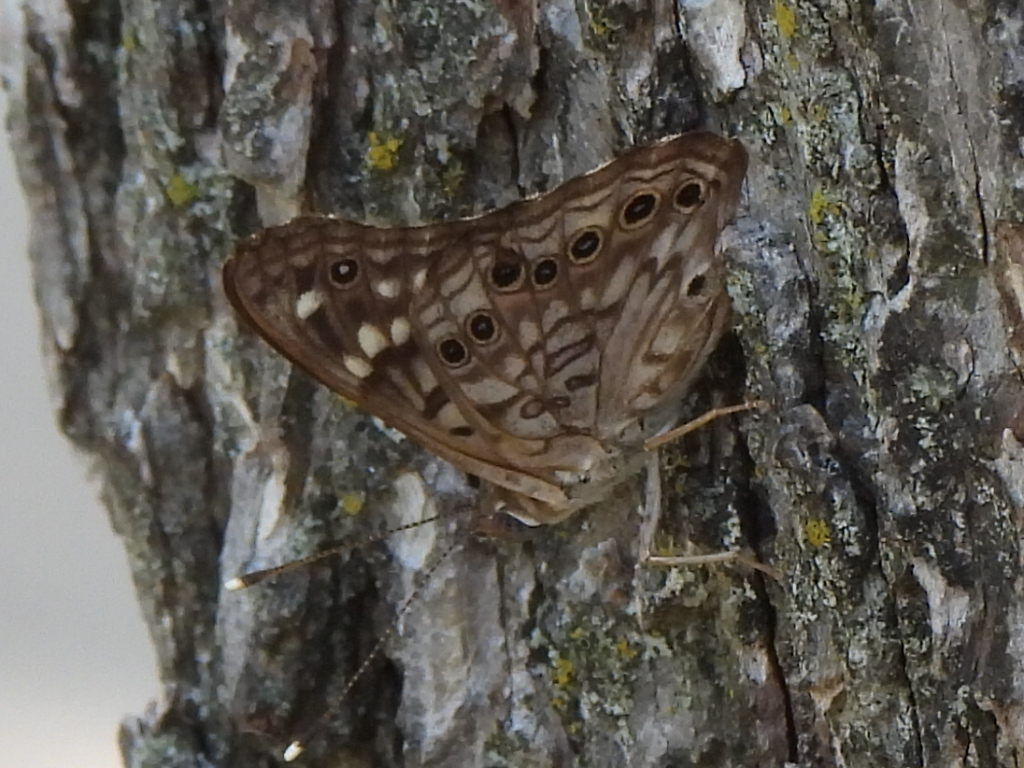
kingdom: Animalia
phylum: Arthropoda
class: Insecta
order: Lepidoptera
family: Nymphalidae
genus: Asterocampa
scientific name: Asterocampa celtis
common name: Hackberry emperor
